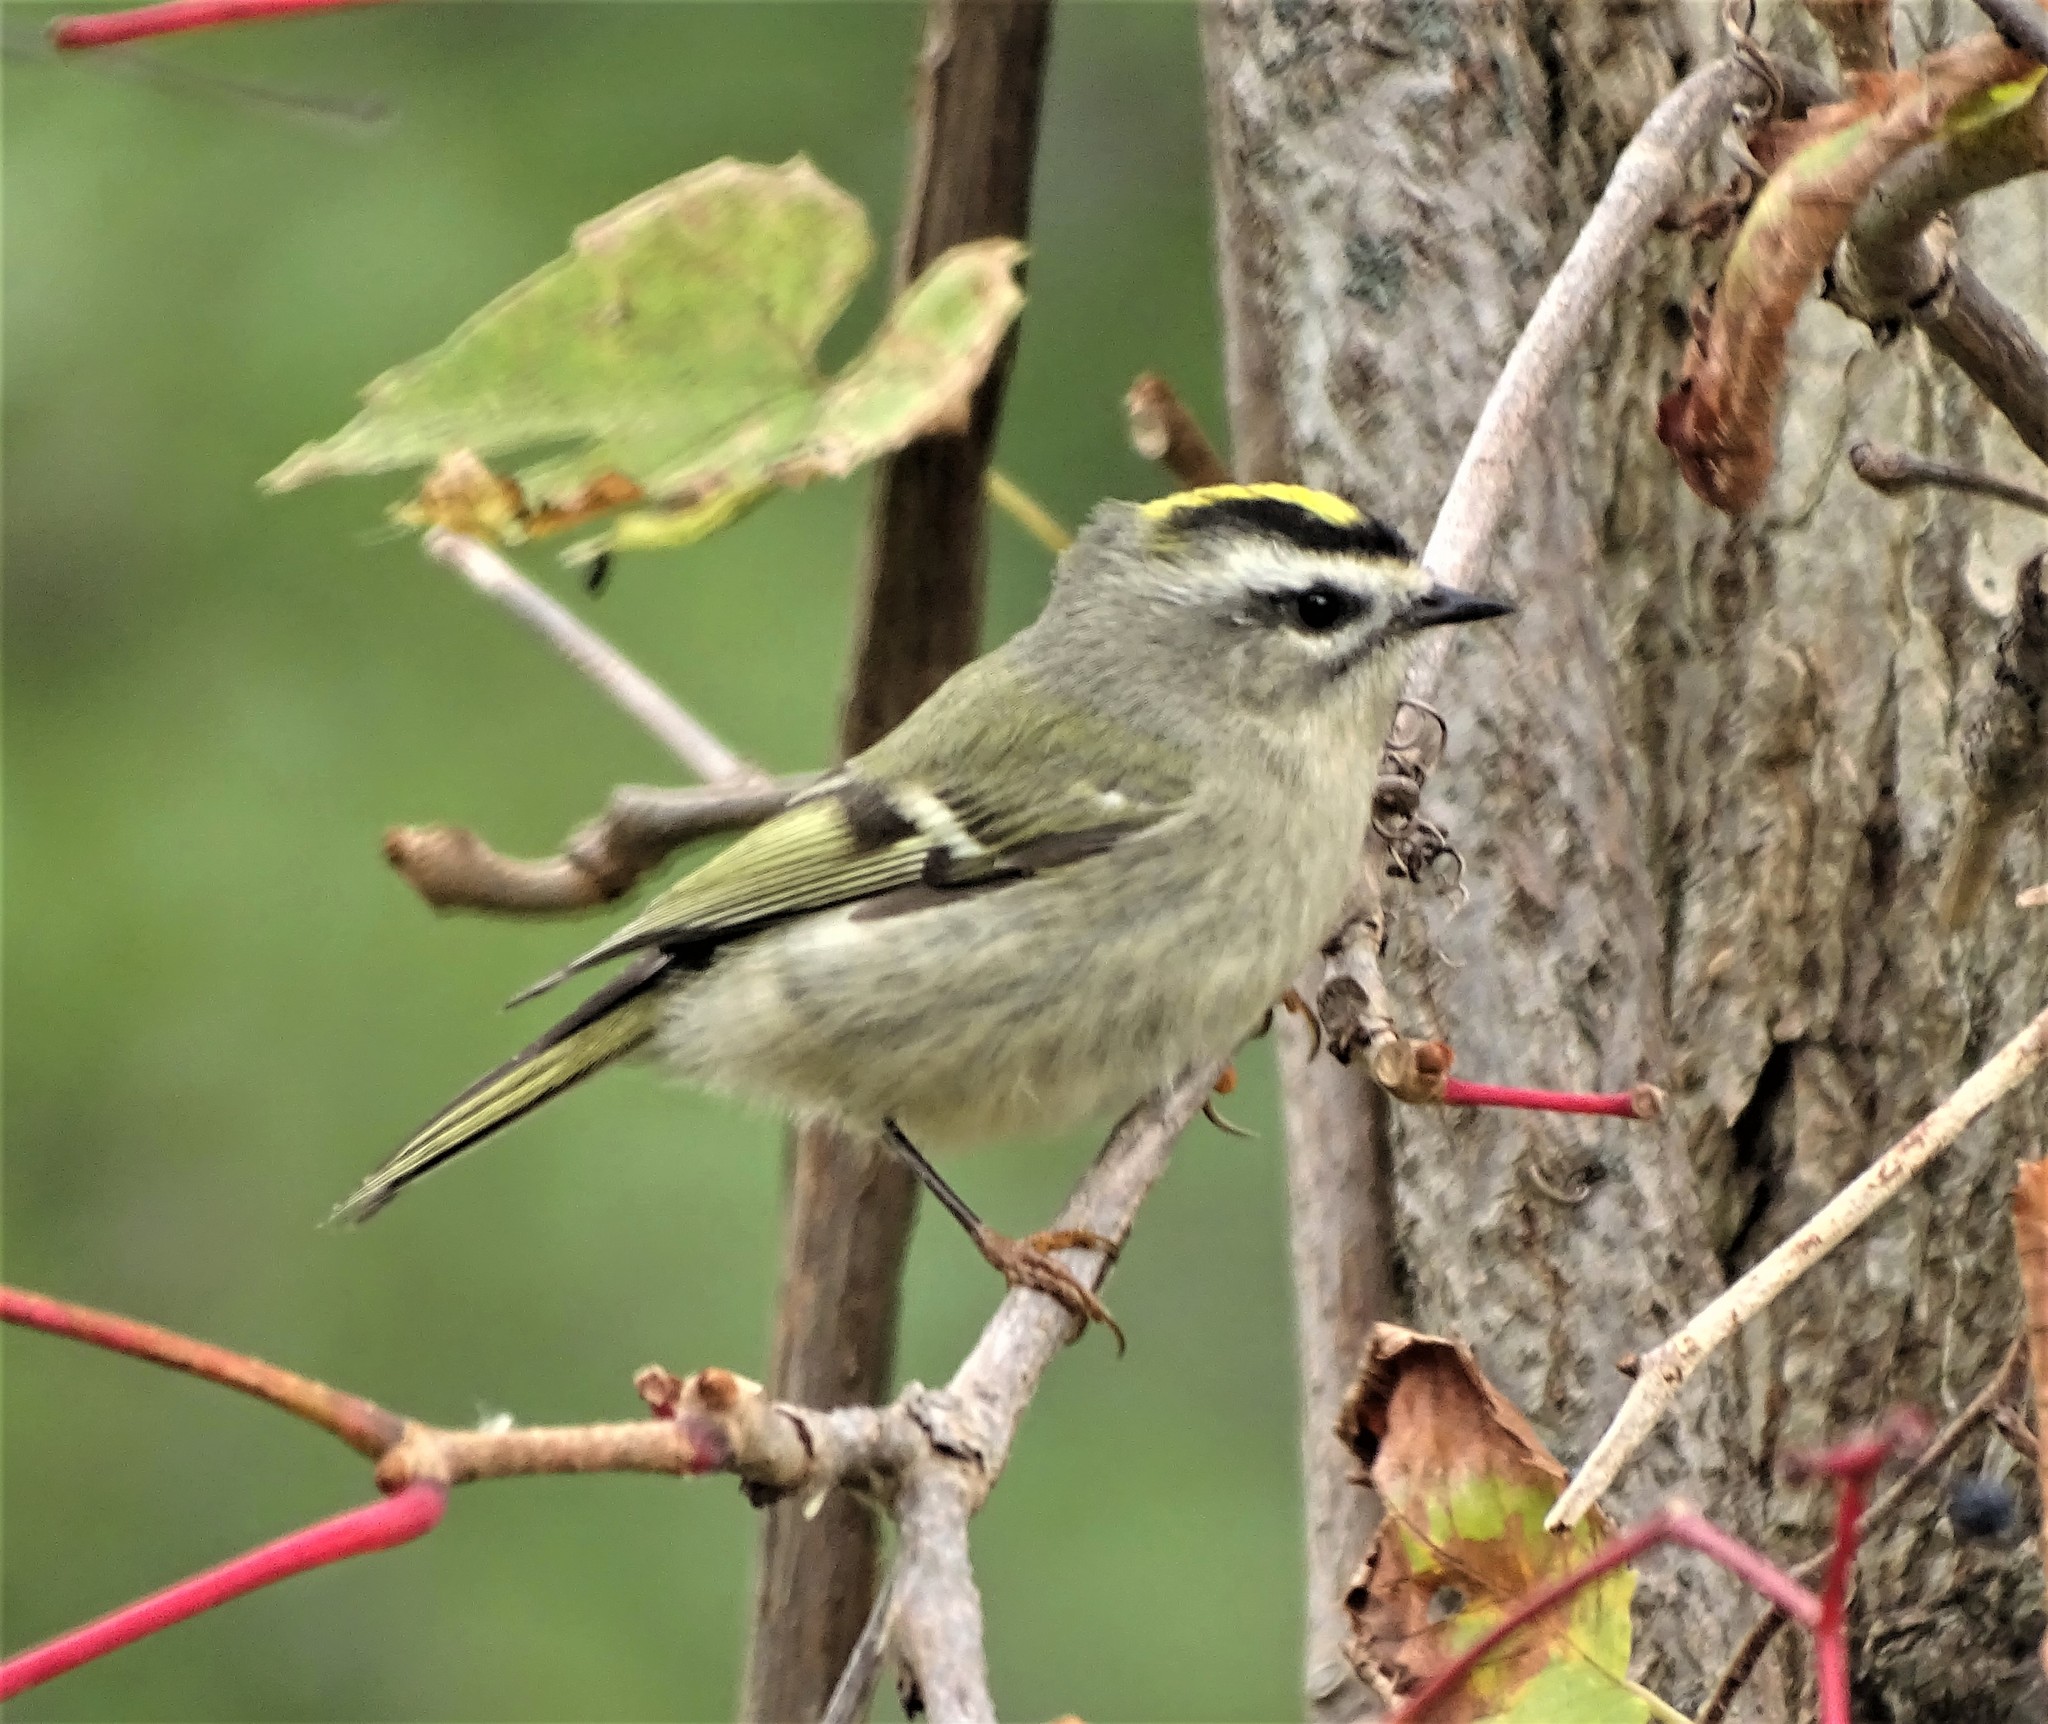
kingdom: Animalia
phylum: Chordata
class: Aves
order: Passeriformes
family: Regulidae
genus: Regulus
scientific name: Regulus satrapa
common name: Golden-crowned kinglet
